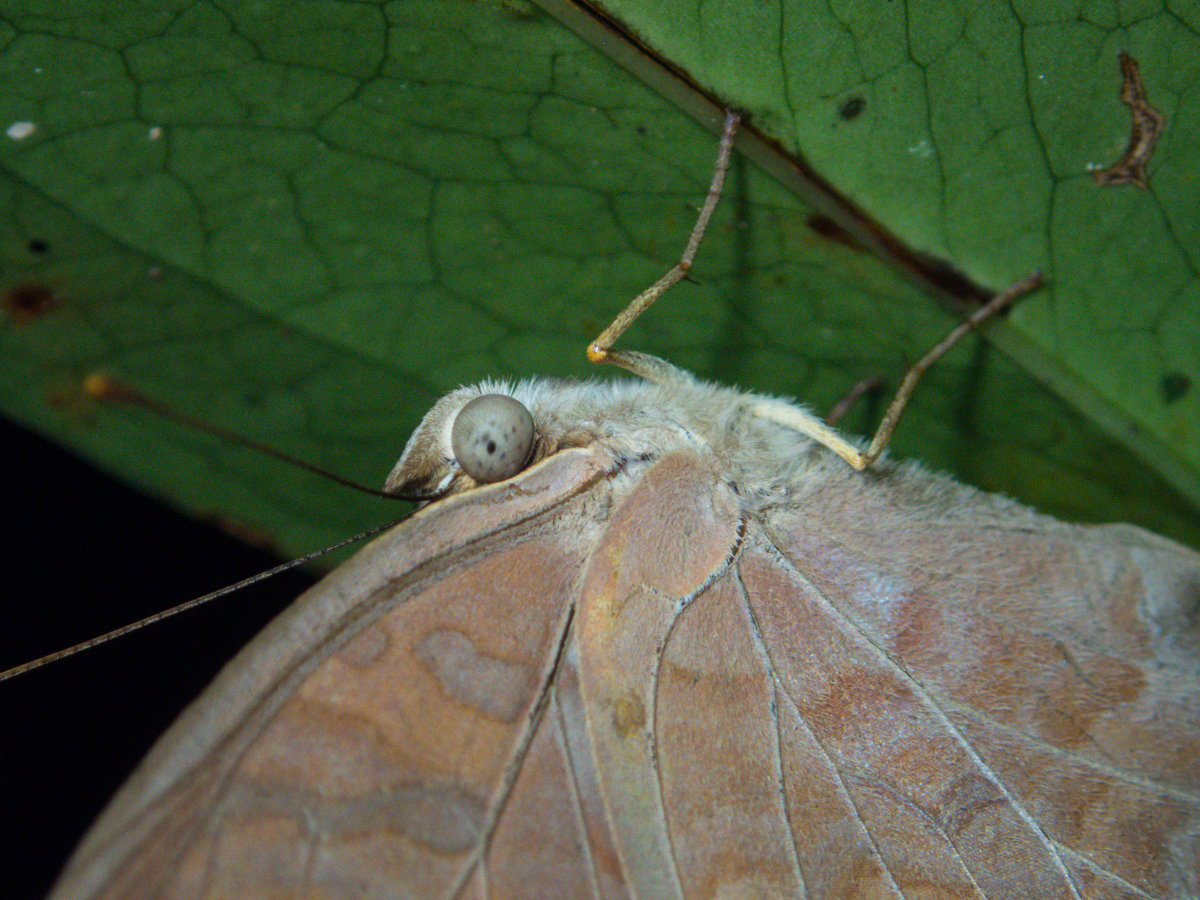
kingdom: Animalia
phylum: Arthropoda
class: Insecta
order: Lepidoptera
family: Nymphalidae
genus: Terinos
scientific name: Terinos clarissa
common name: Malayan assyrian
